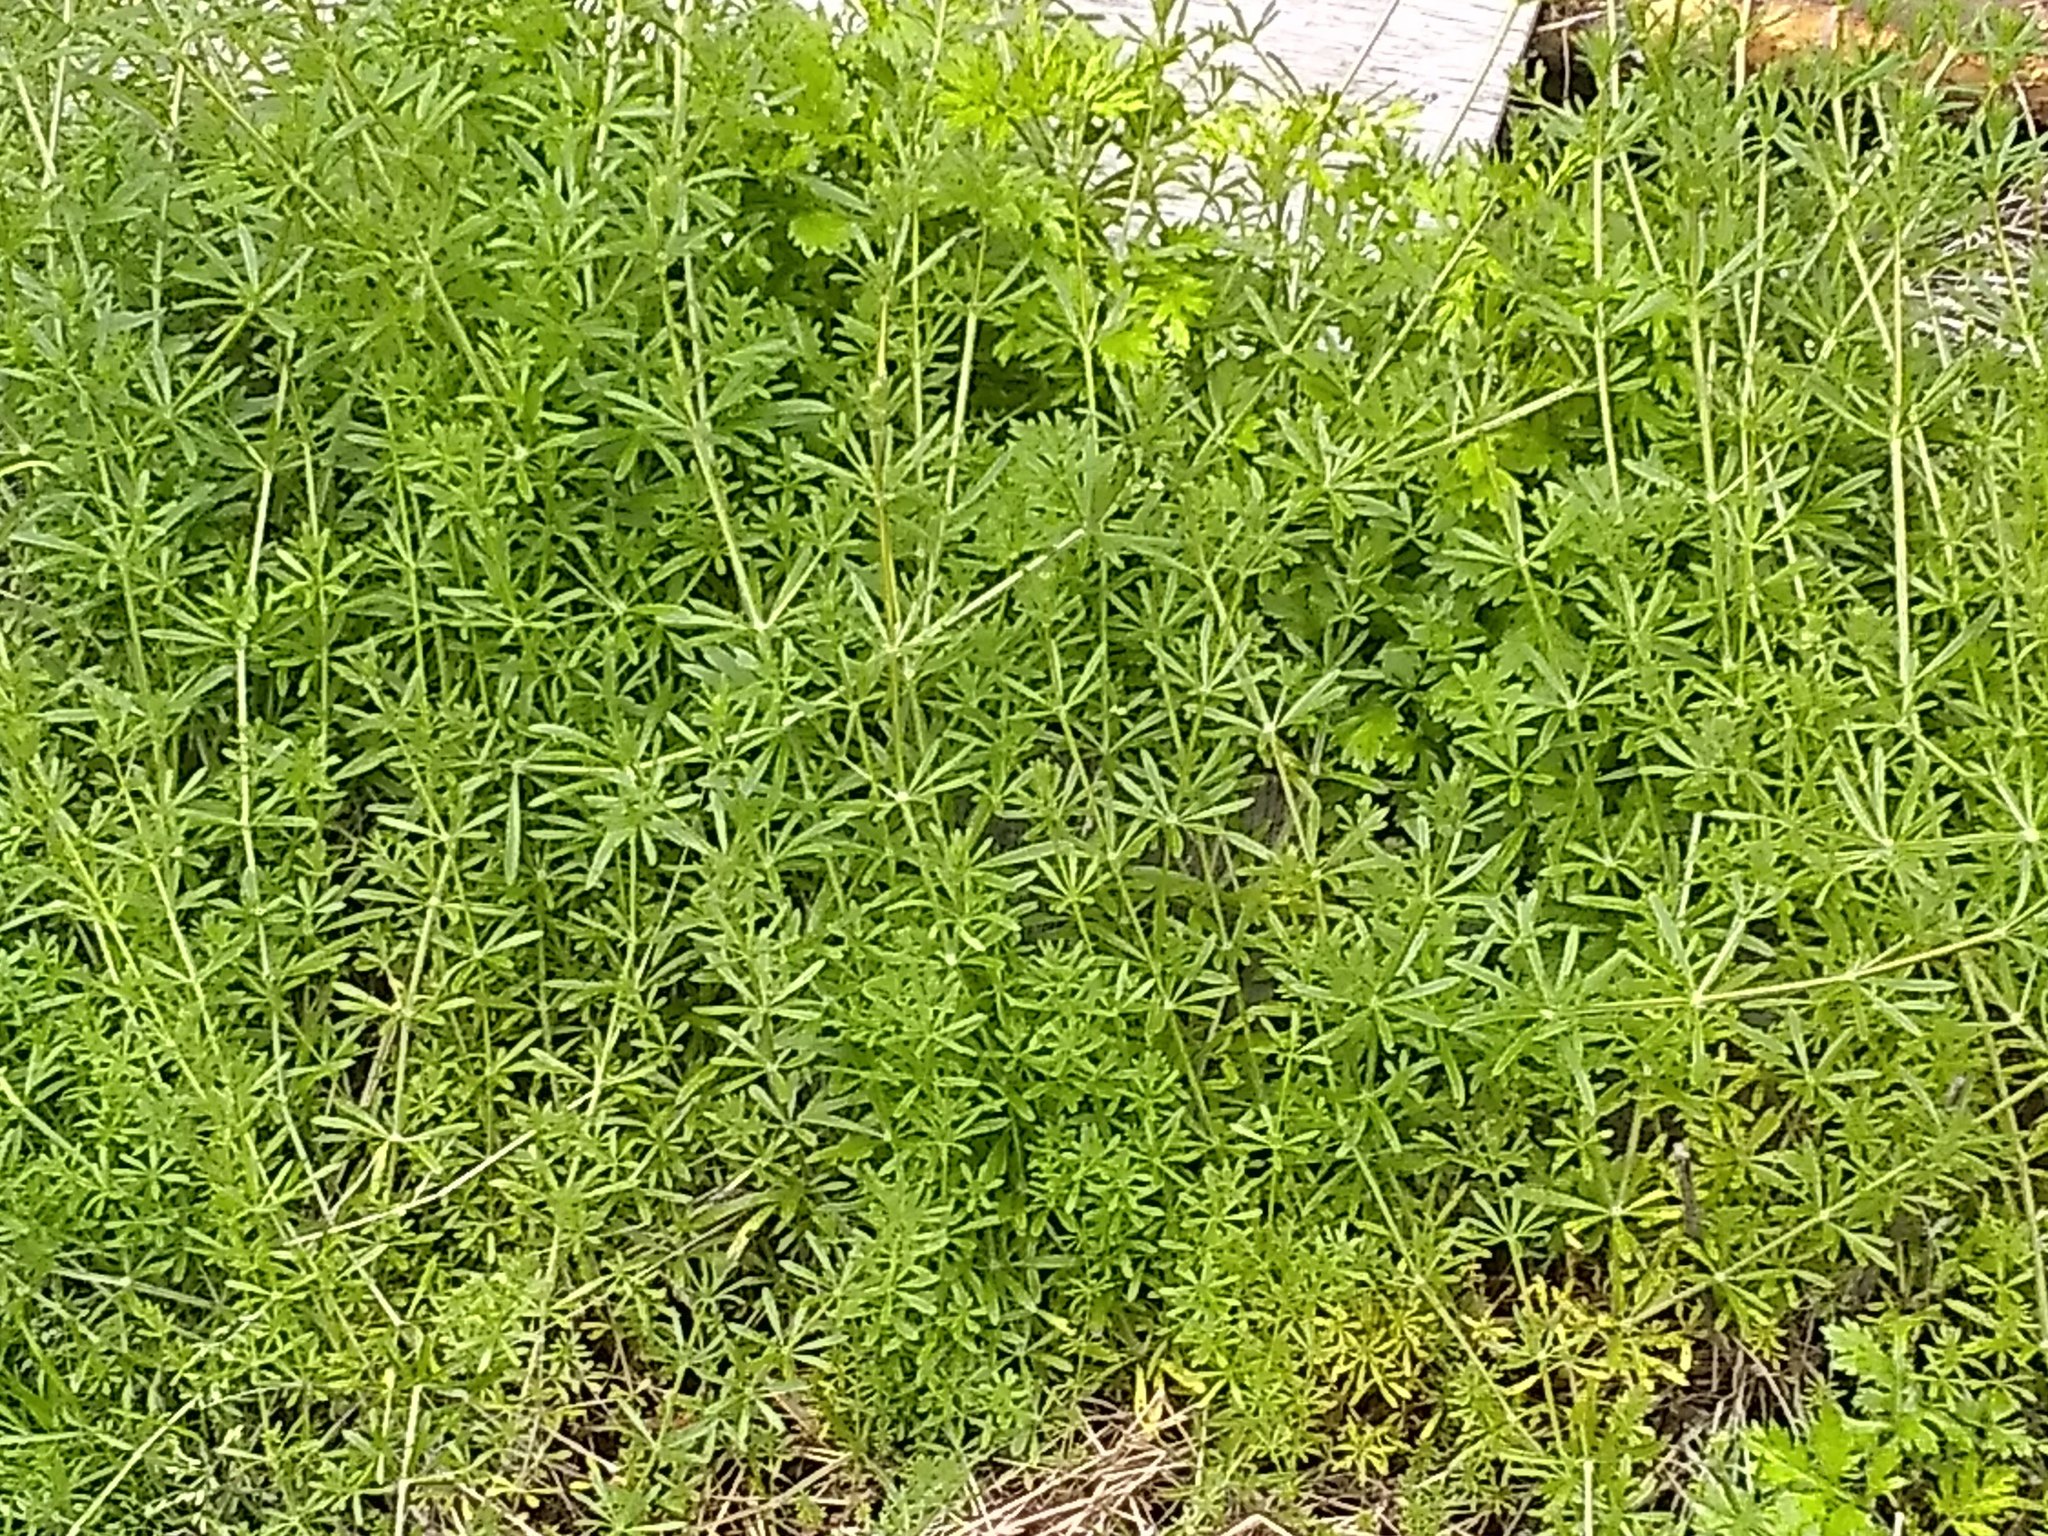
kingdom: Plantae
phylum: Tracheophyta
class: Magnoliopsida
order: Gentianales
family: Rubiaceae
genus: Galium
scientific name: Galium aparine
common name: Cleavers
